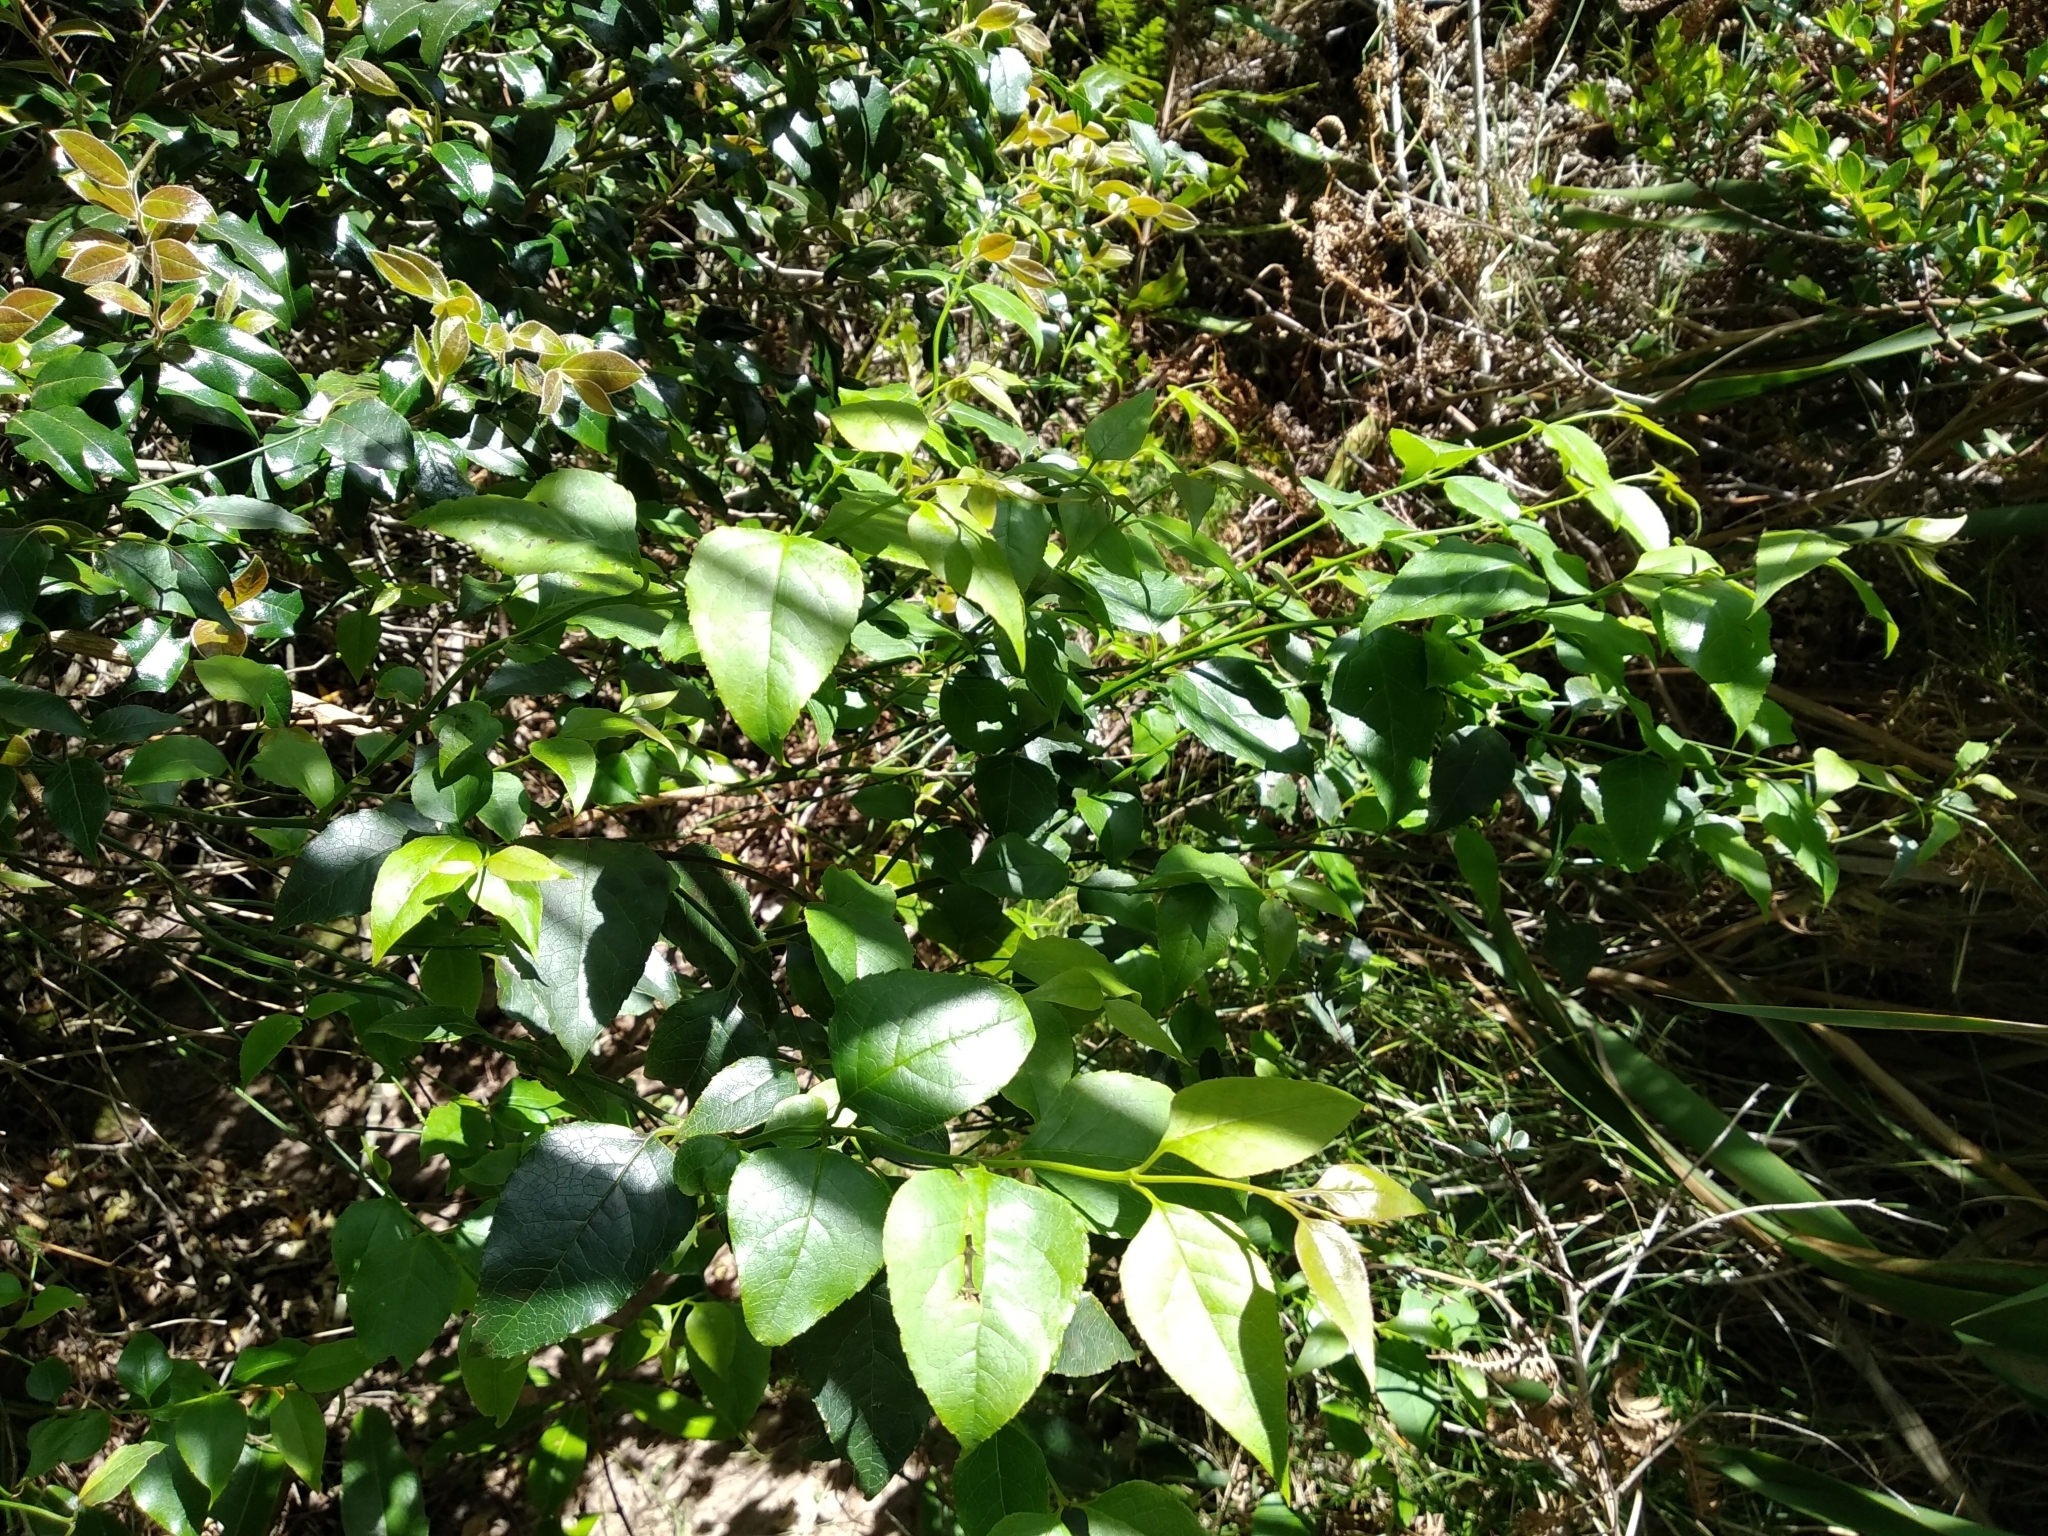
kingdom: Plantae
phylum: Tracheophyta
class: Magnoliopsida
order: Lamiales
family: Stilbaceae
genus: Halleria
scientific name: Halleria lucida
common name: Tree fuschia
